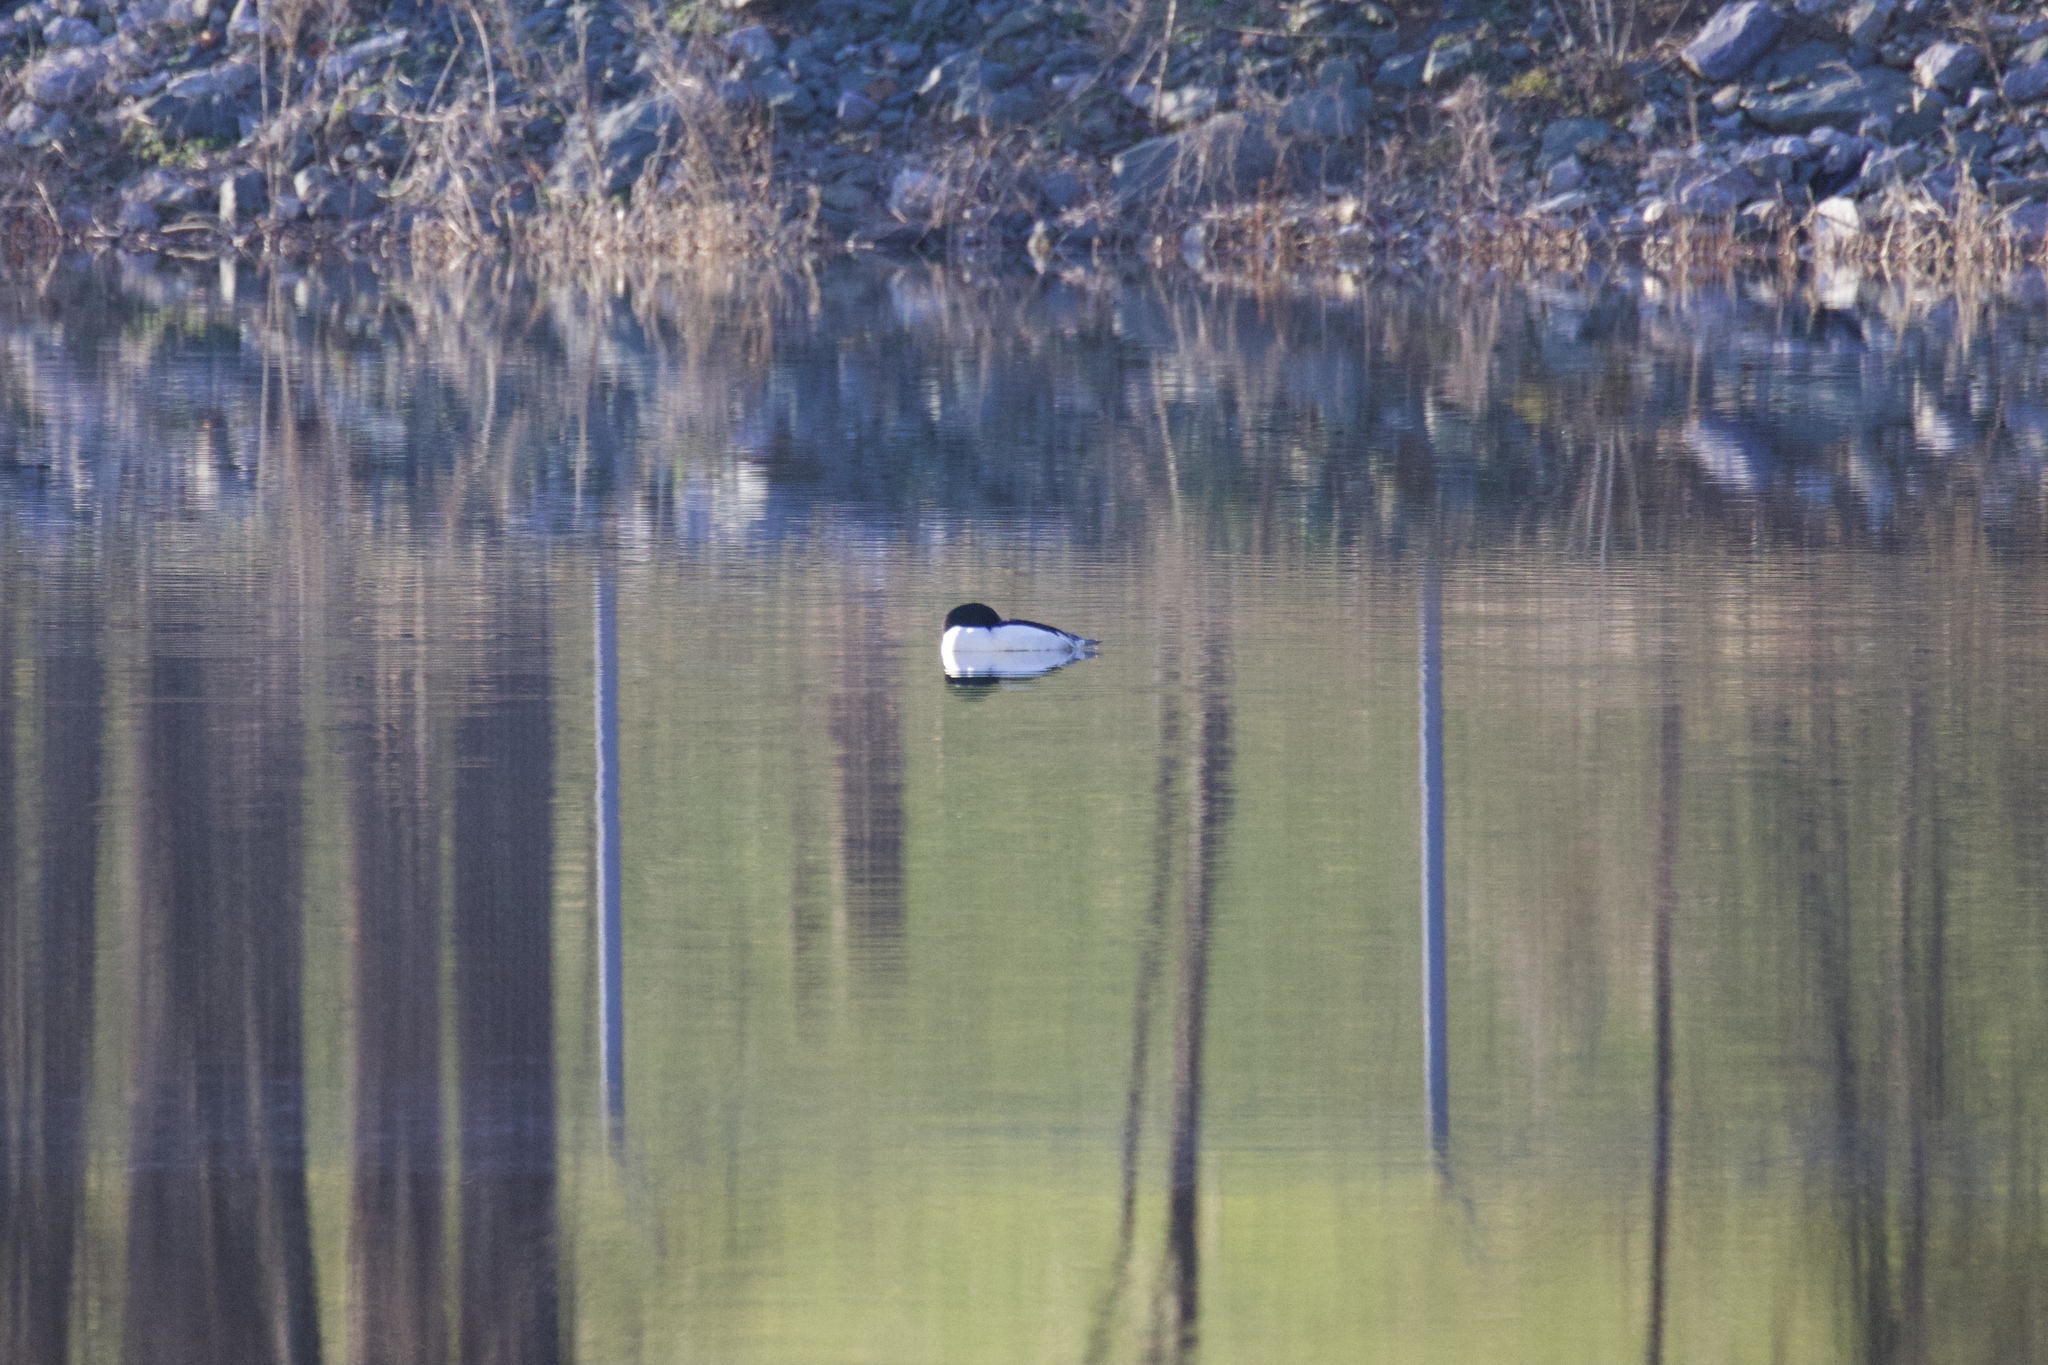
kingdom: Animalia
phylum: Chordata
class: Aves
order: Anseriformes
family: Anatidae
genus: Mergus
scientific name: Mergus merganser
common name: Common merganser
